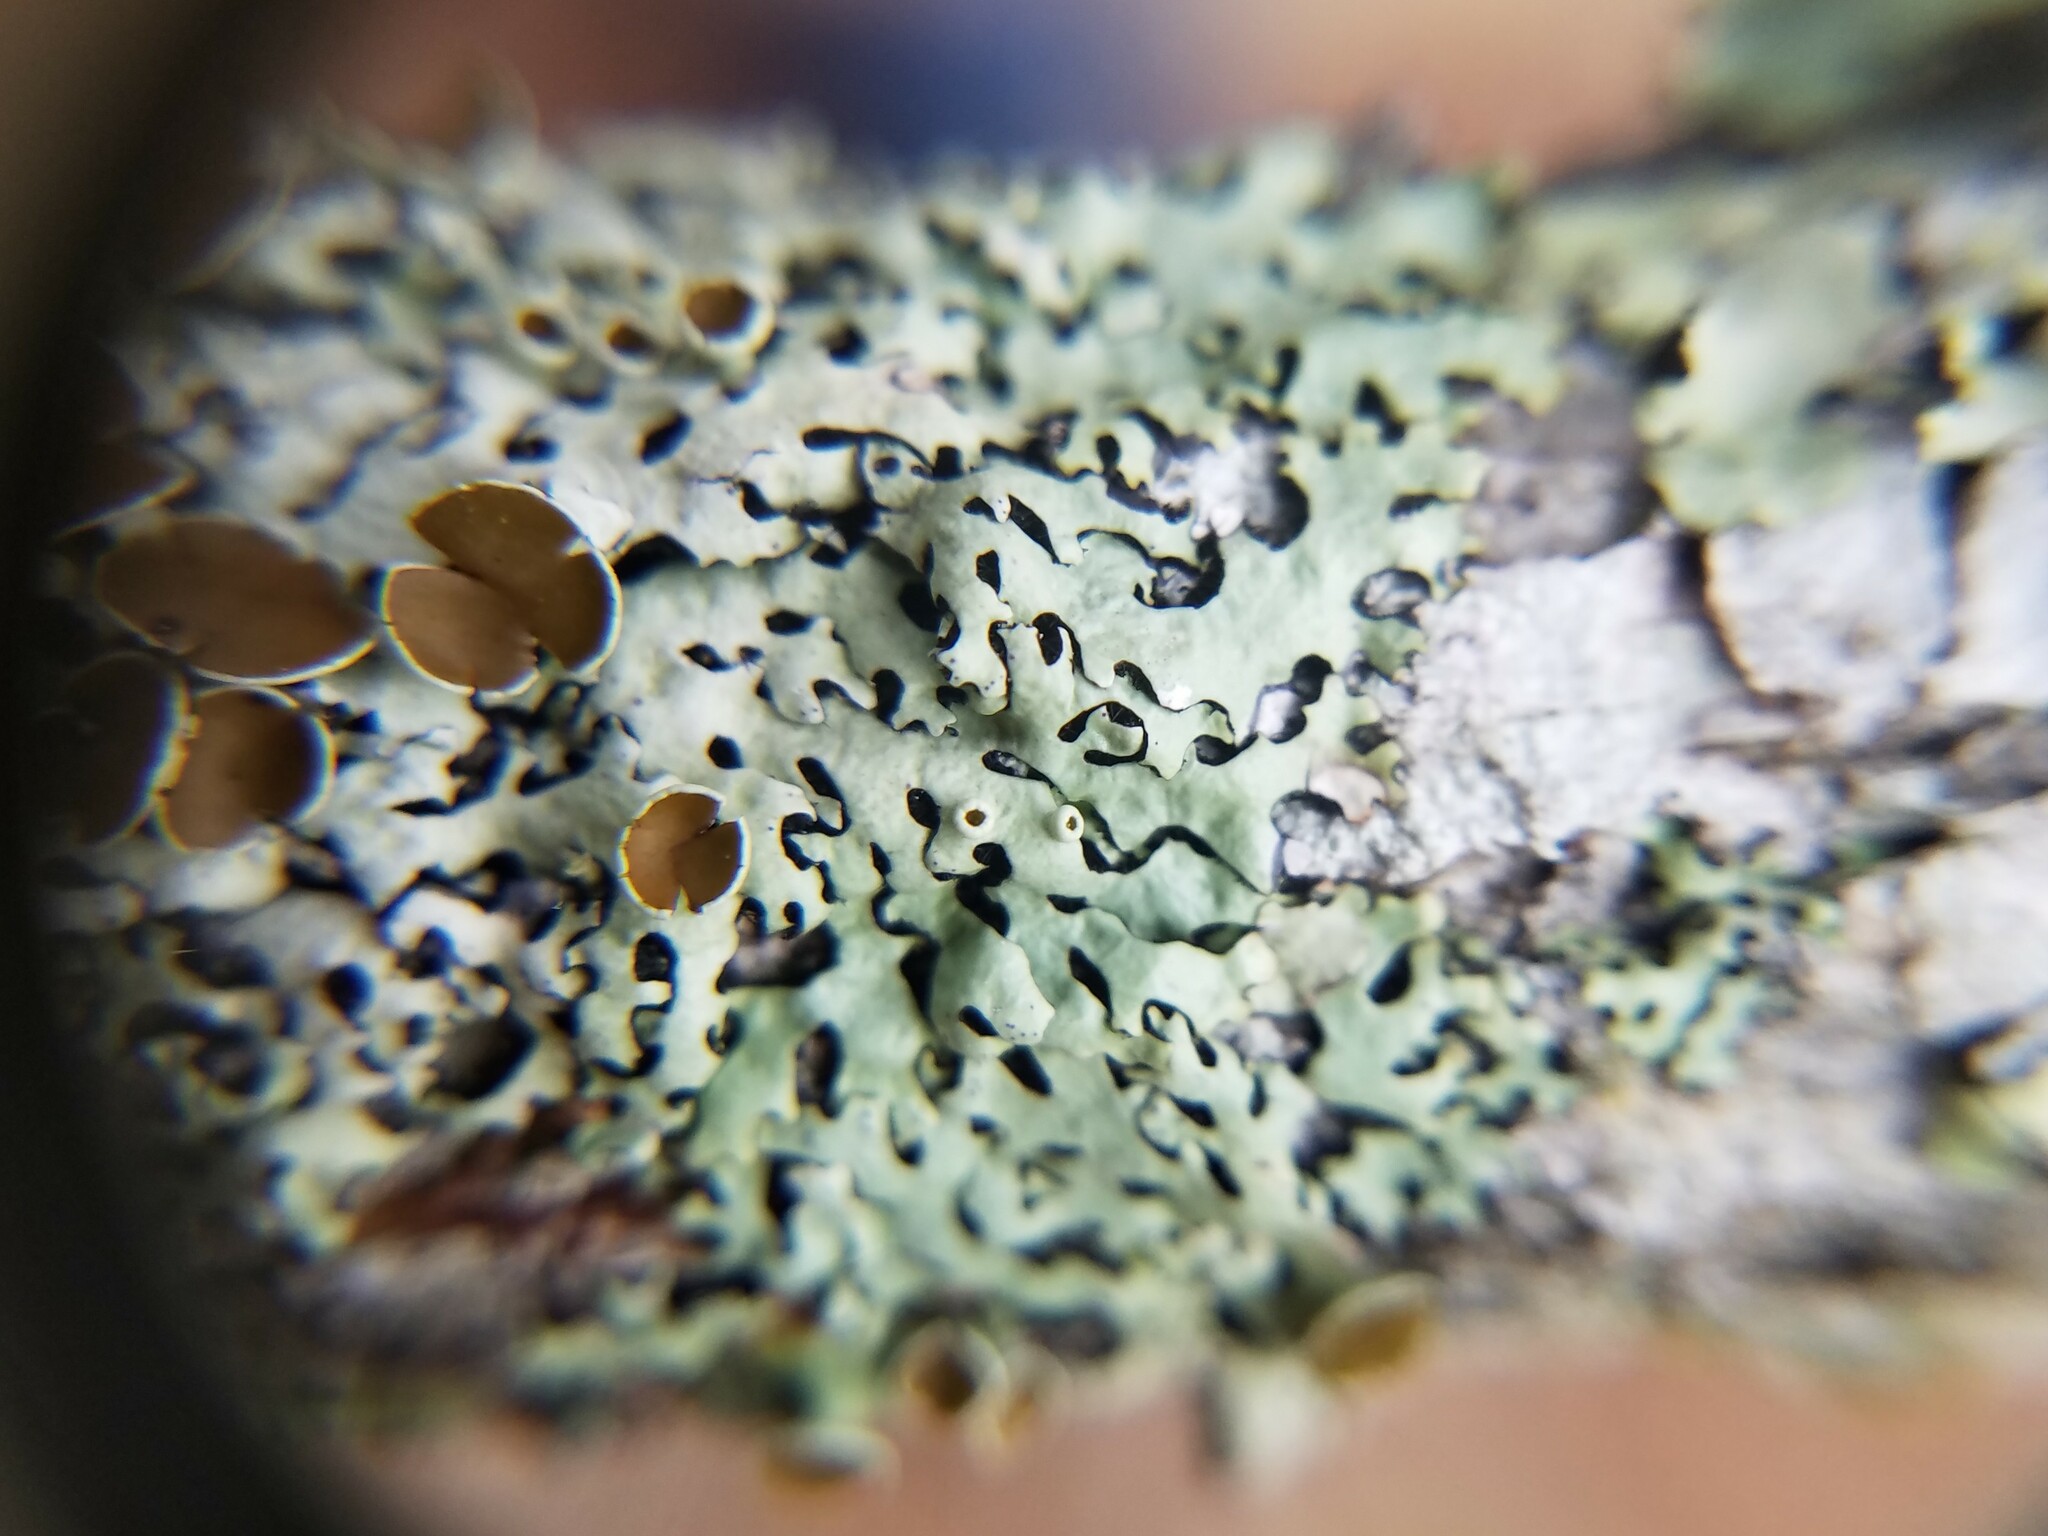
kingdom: Fungi
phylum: Ascomycota
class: Lecanoromycetes
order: Lecanorales
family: Parmeliaceae
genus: Hypotrachyna
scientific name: Hypotrachyna livida
